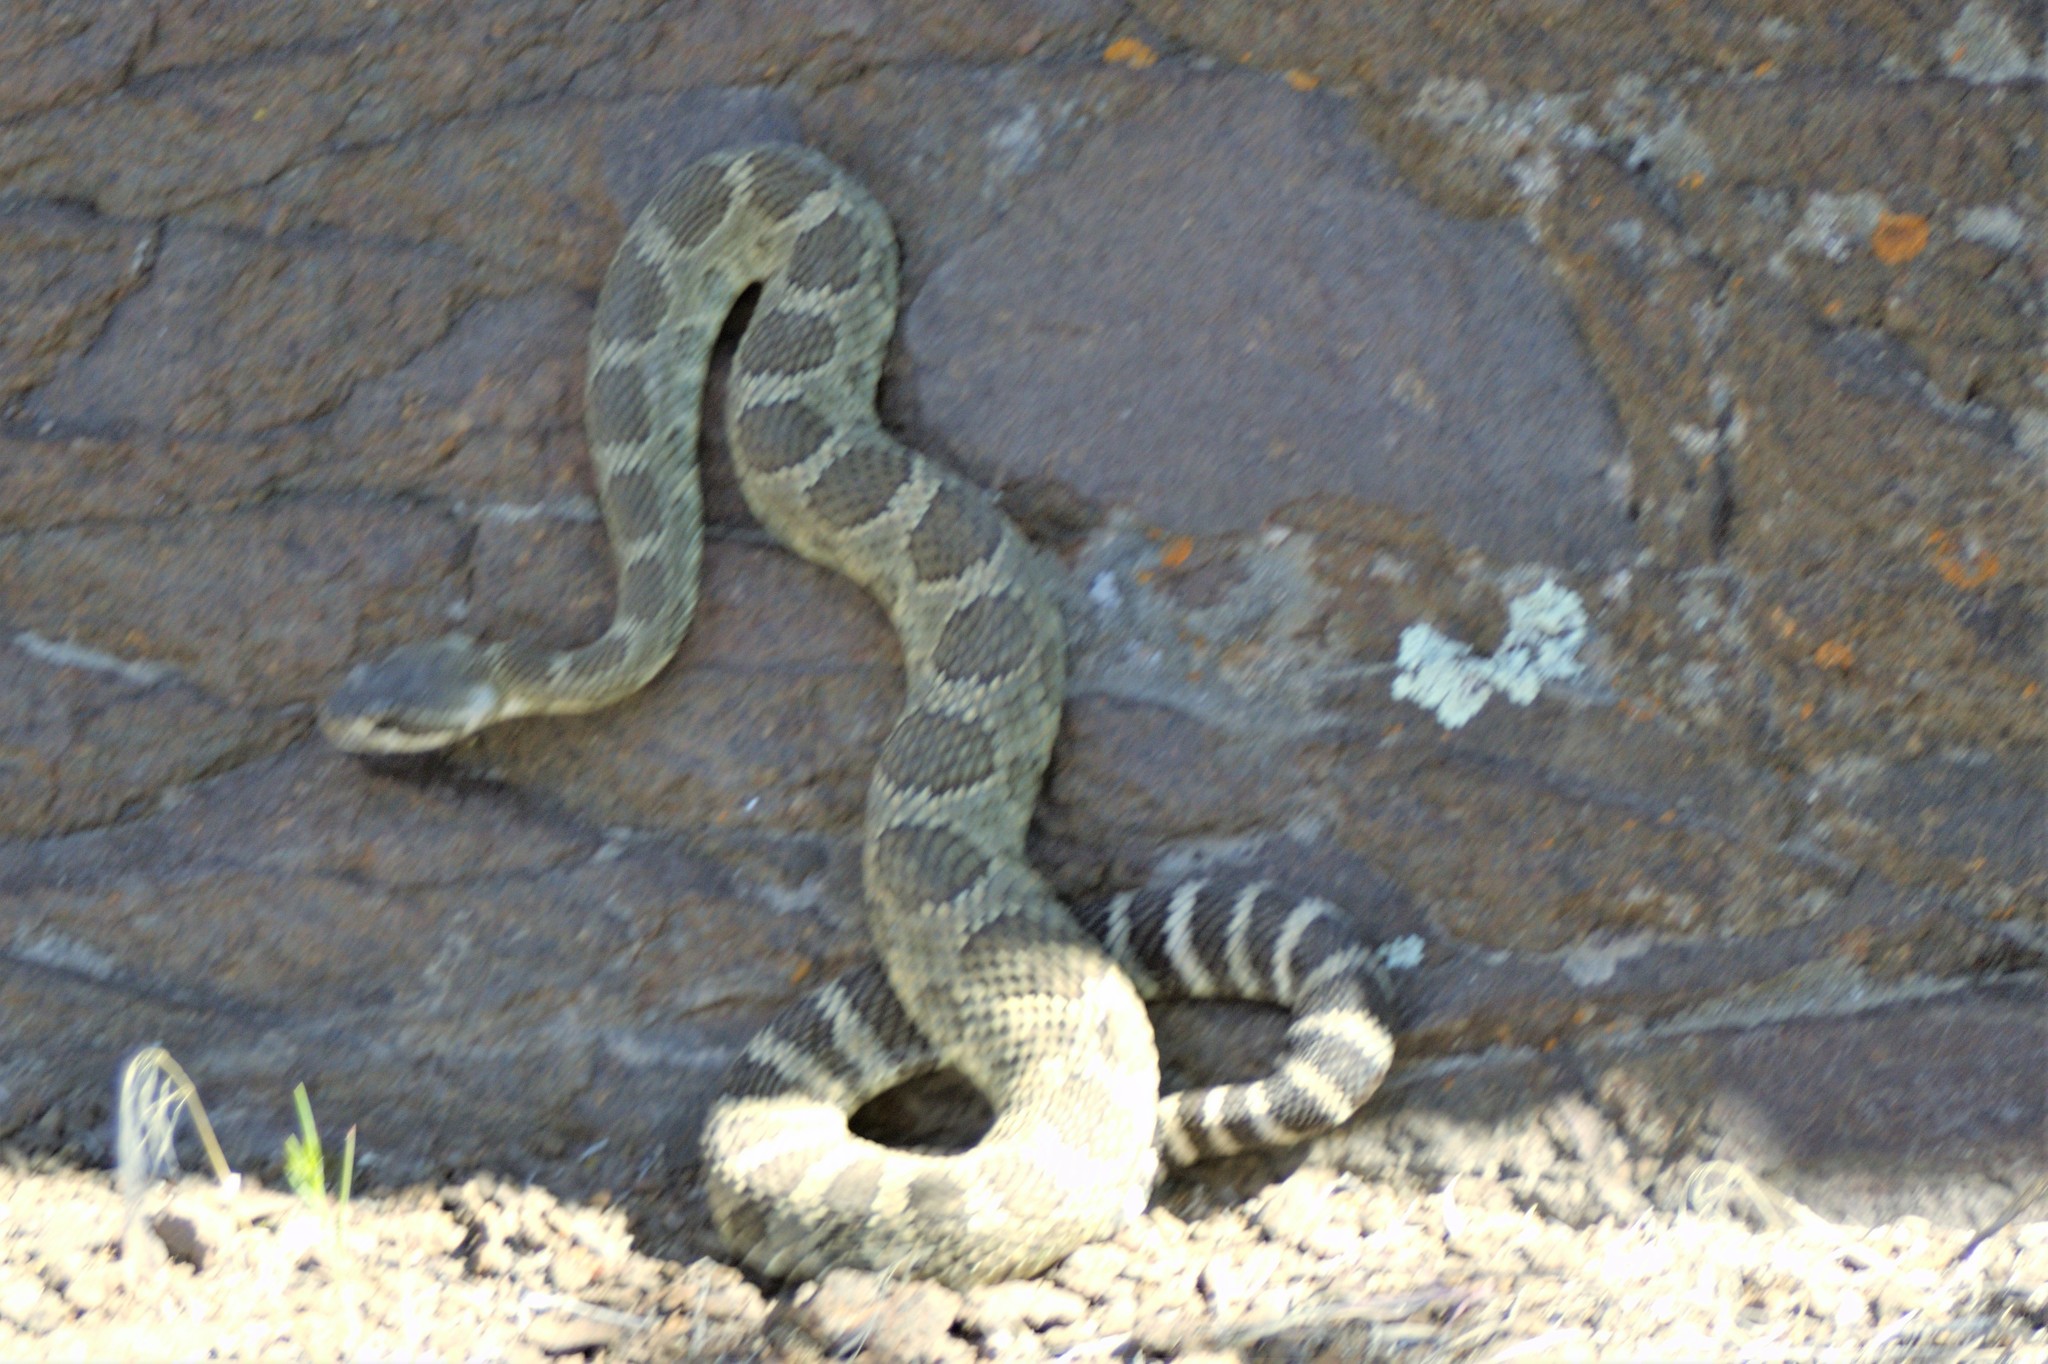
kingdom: Animalia
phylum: Chordata
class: Squamata
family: Viperidae
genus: Crotalus
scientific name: Crotalus oreganus
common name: Abyssus
